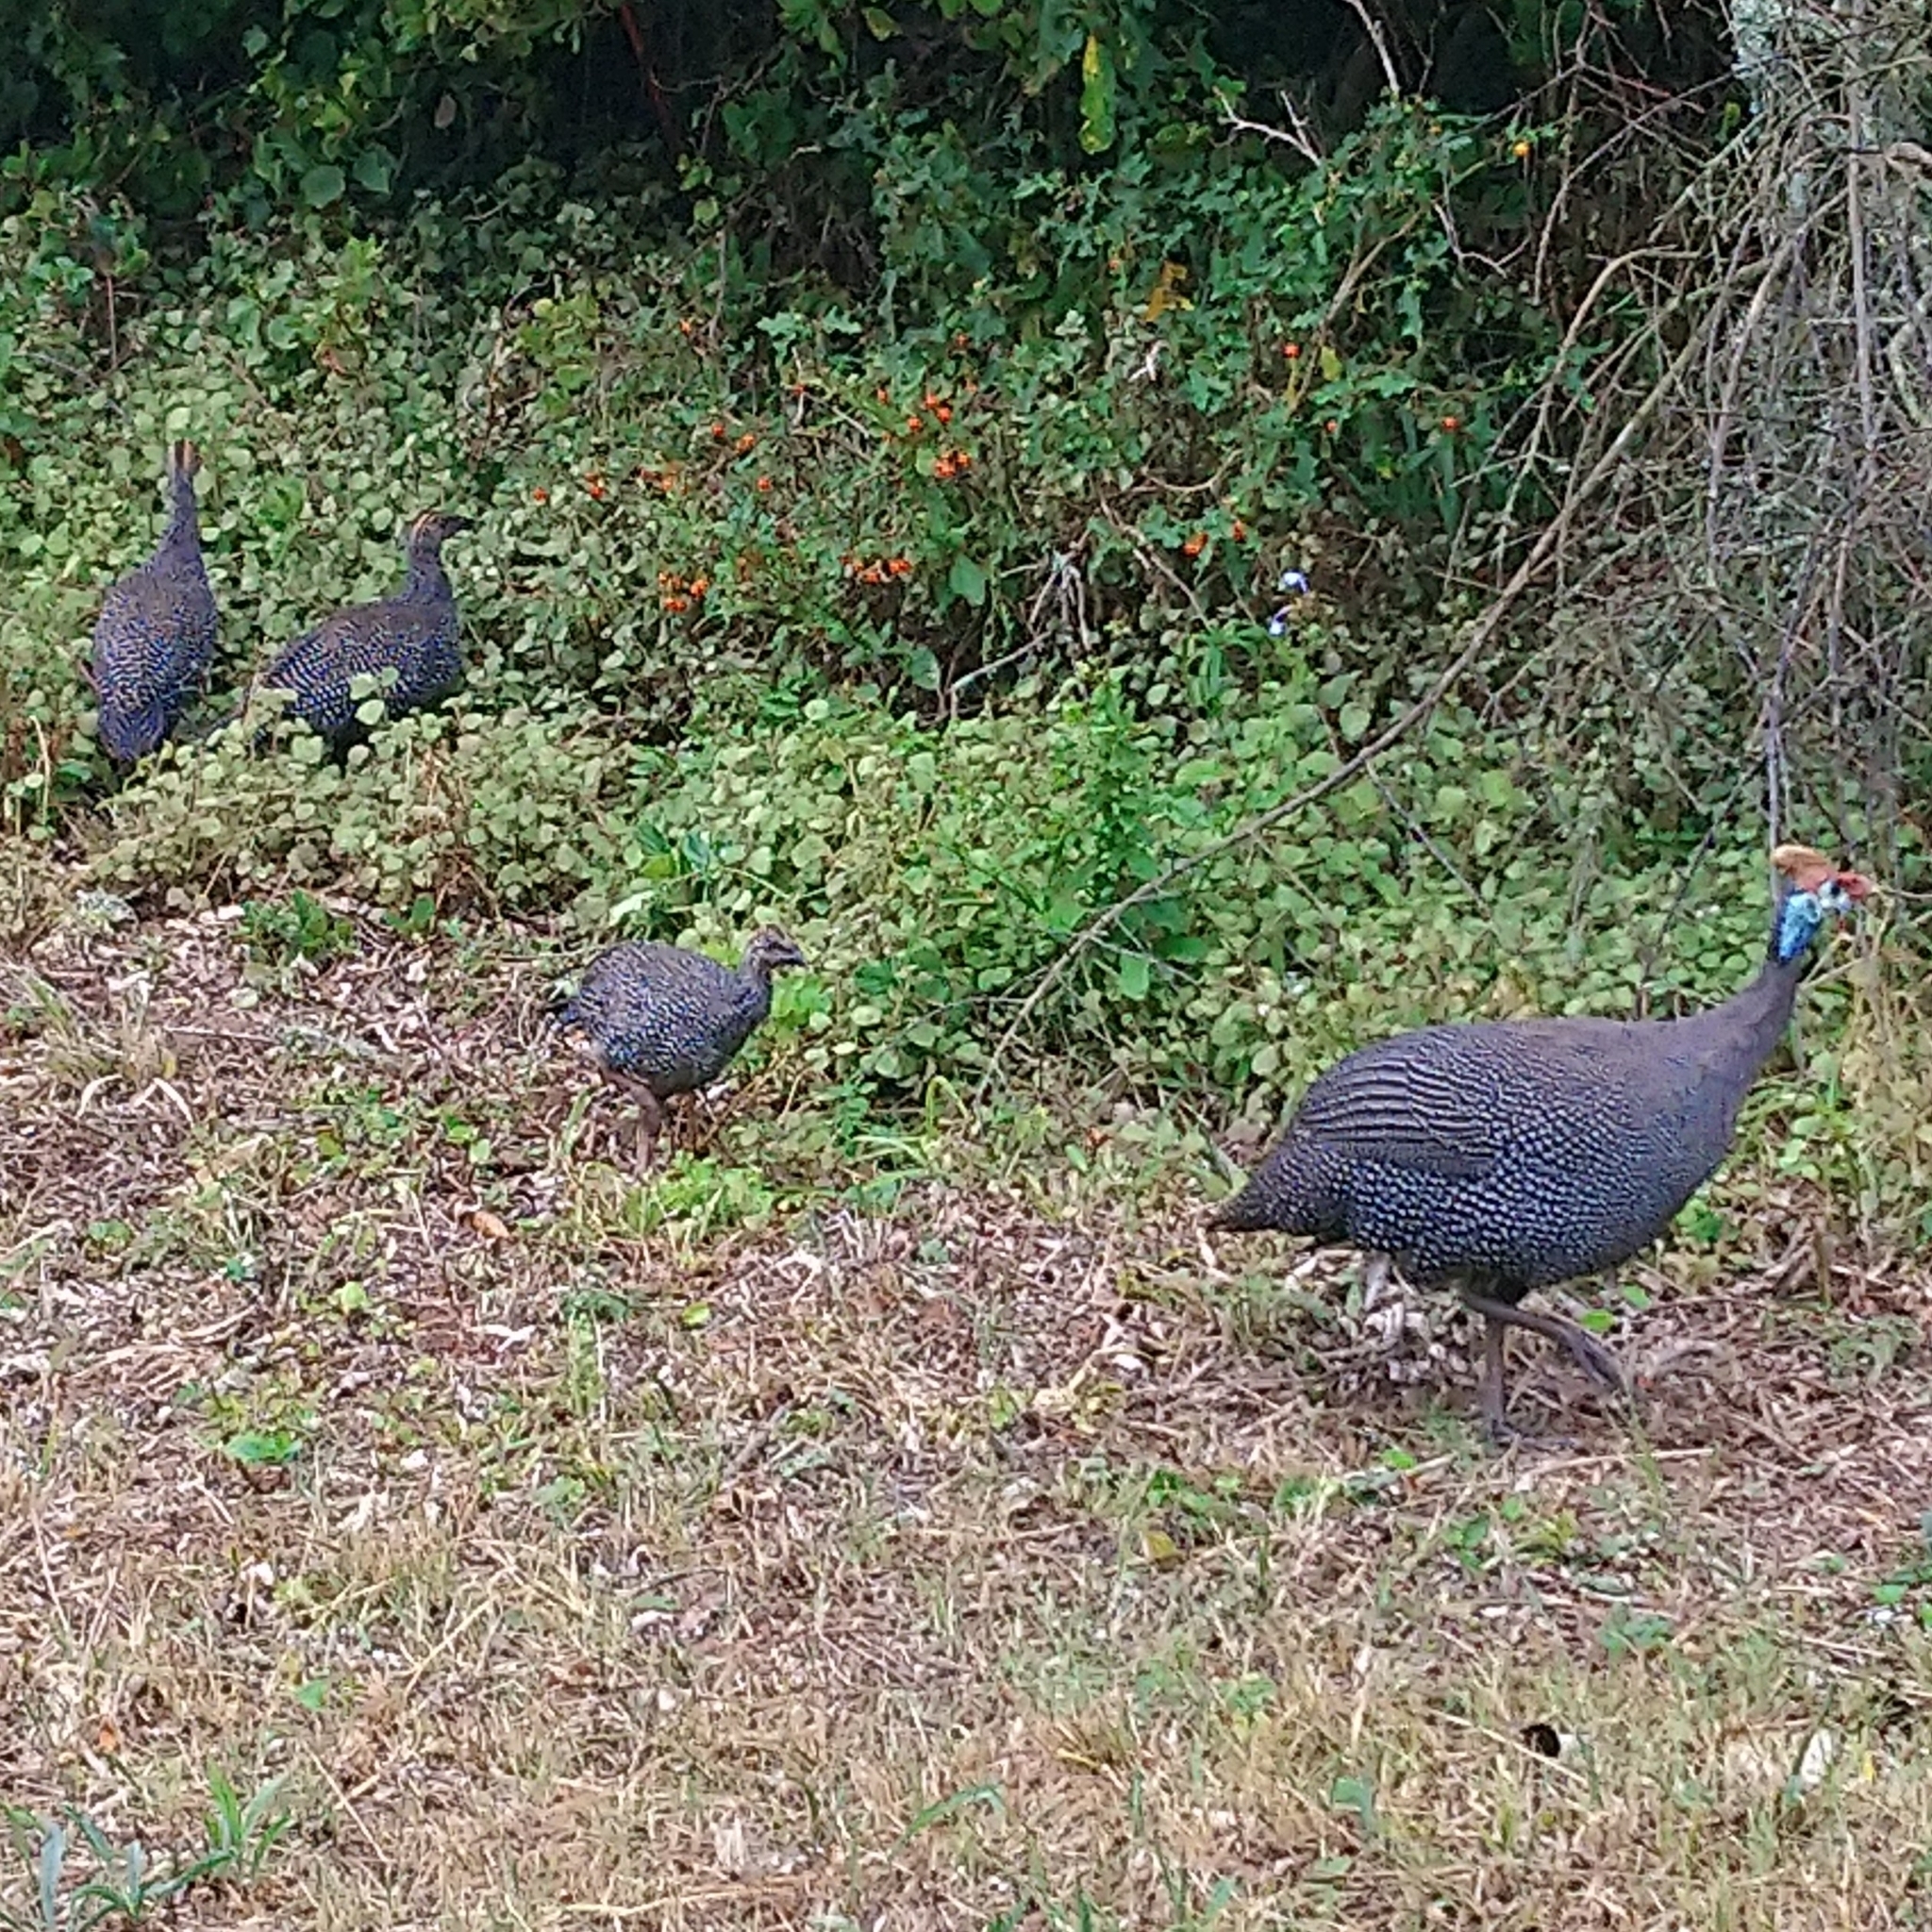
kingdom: Animalia
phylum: Chordata
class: Aves
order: Galliformes
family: Numididae
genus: Numida
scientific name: Numida meleagris
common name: Helmeted guineafowl
